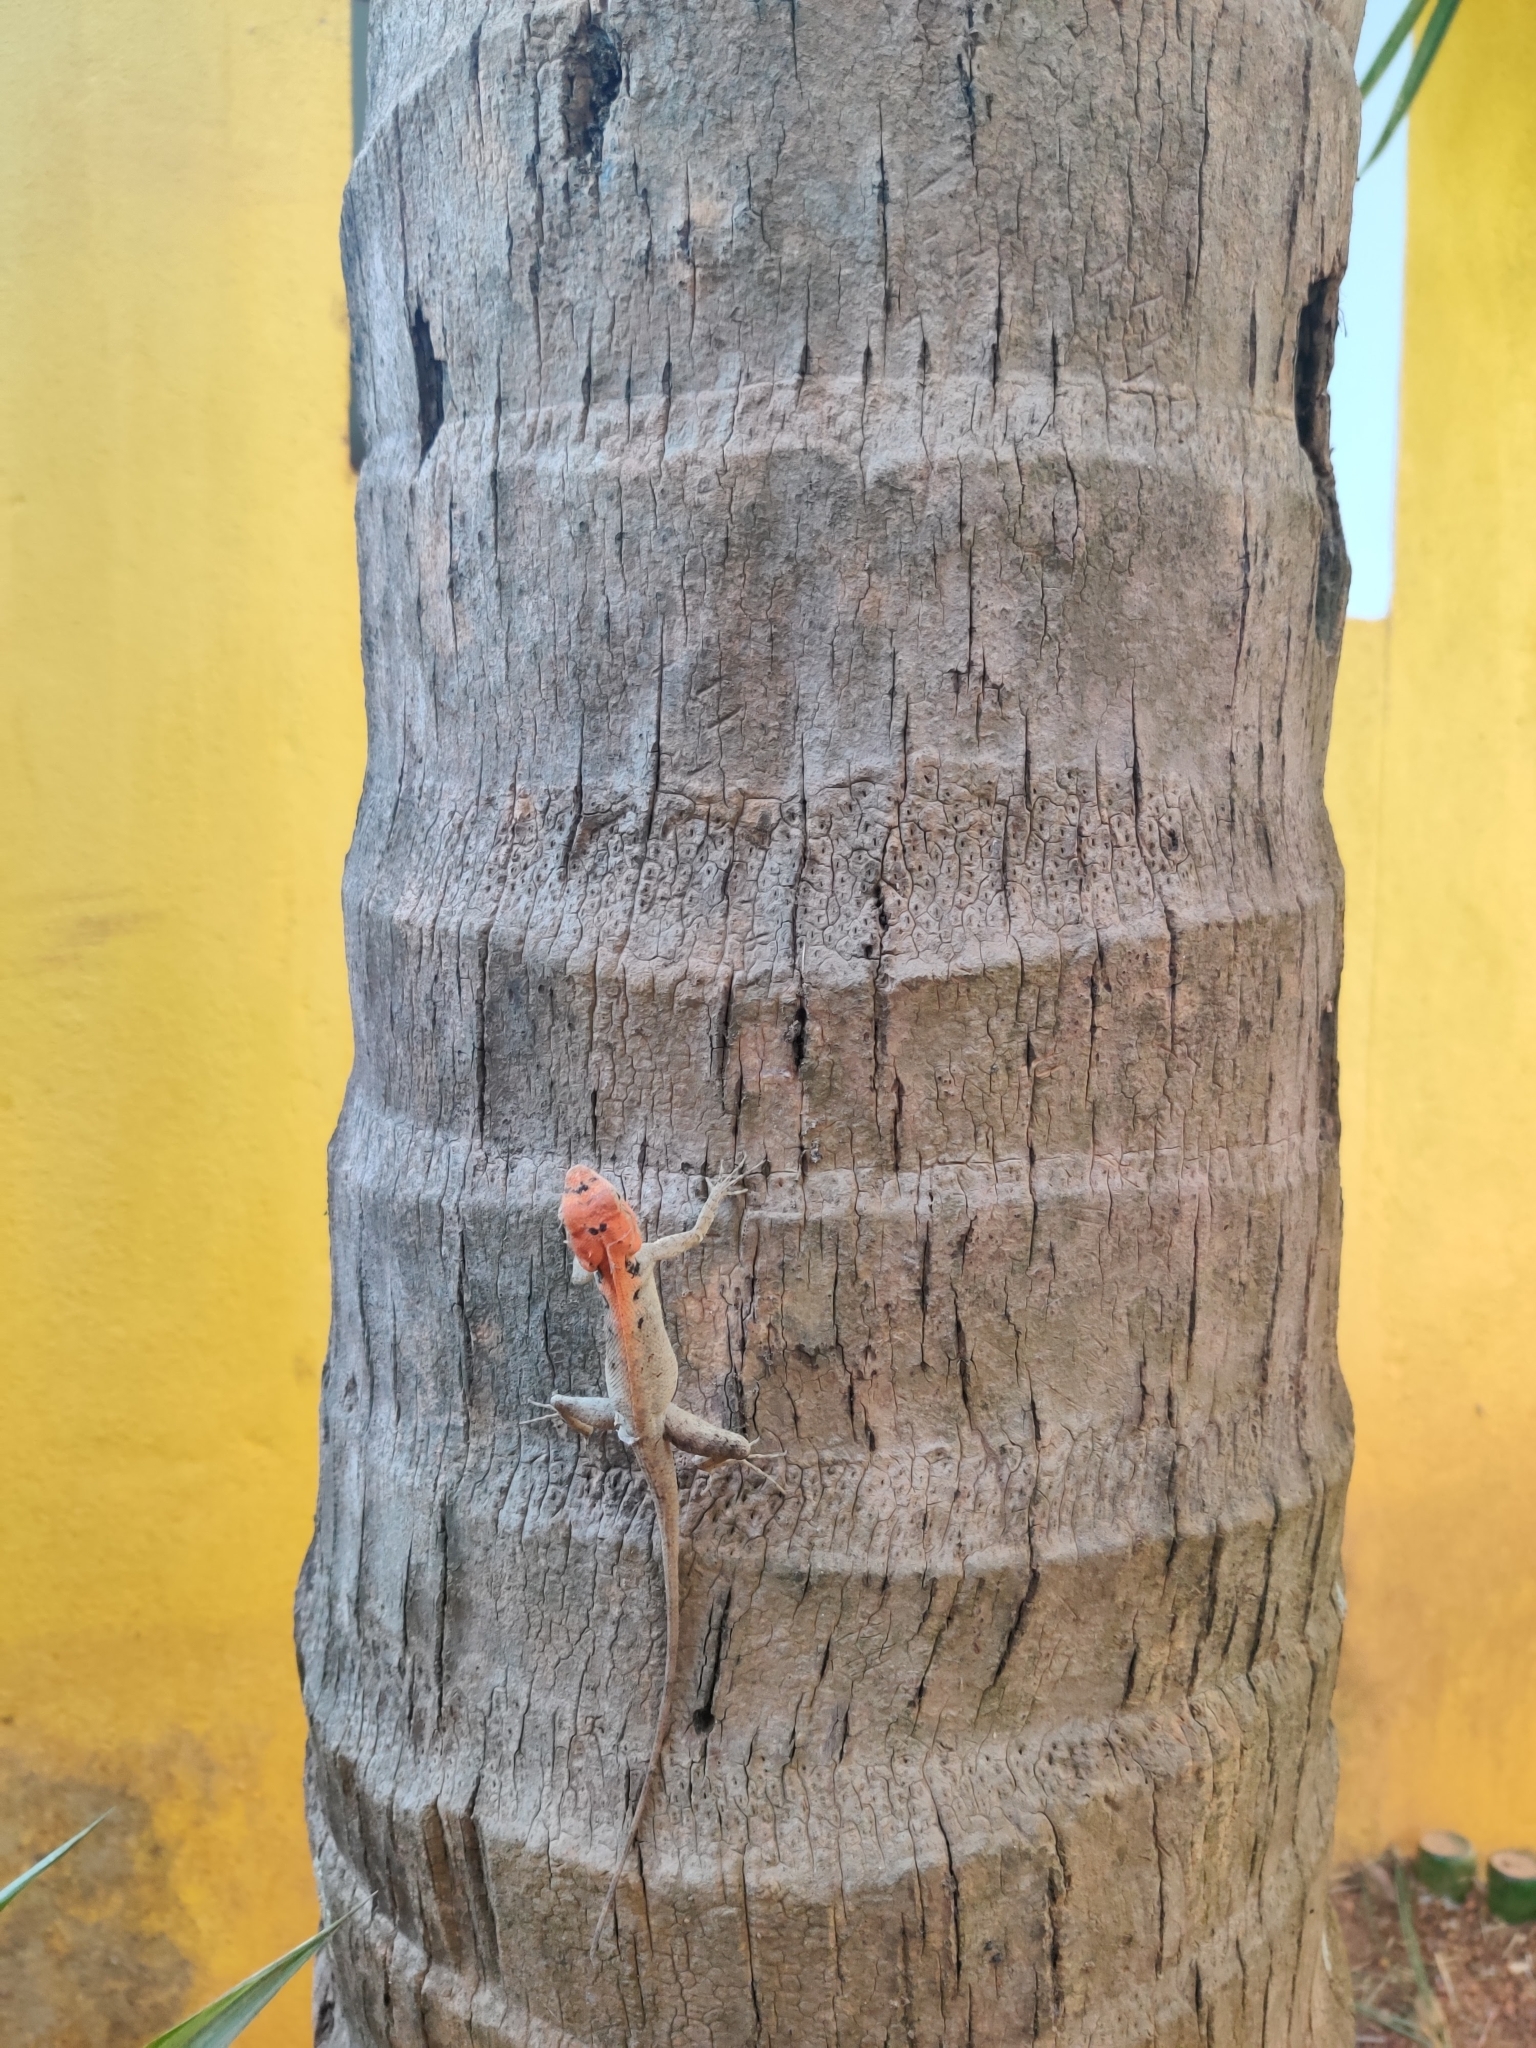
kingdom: Animalia
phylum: Chordata
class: Squamata
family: Agamidae
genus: Calotes
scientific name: Calotes versicolor
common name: Oriental garden lizard
